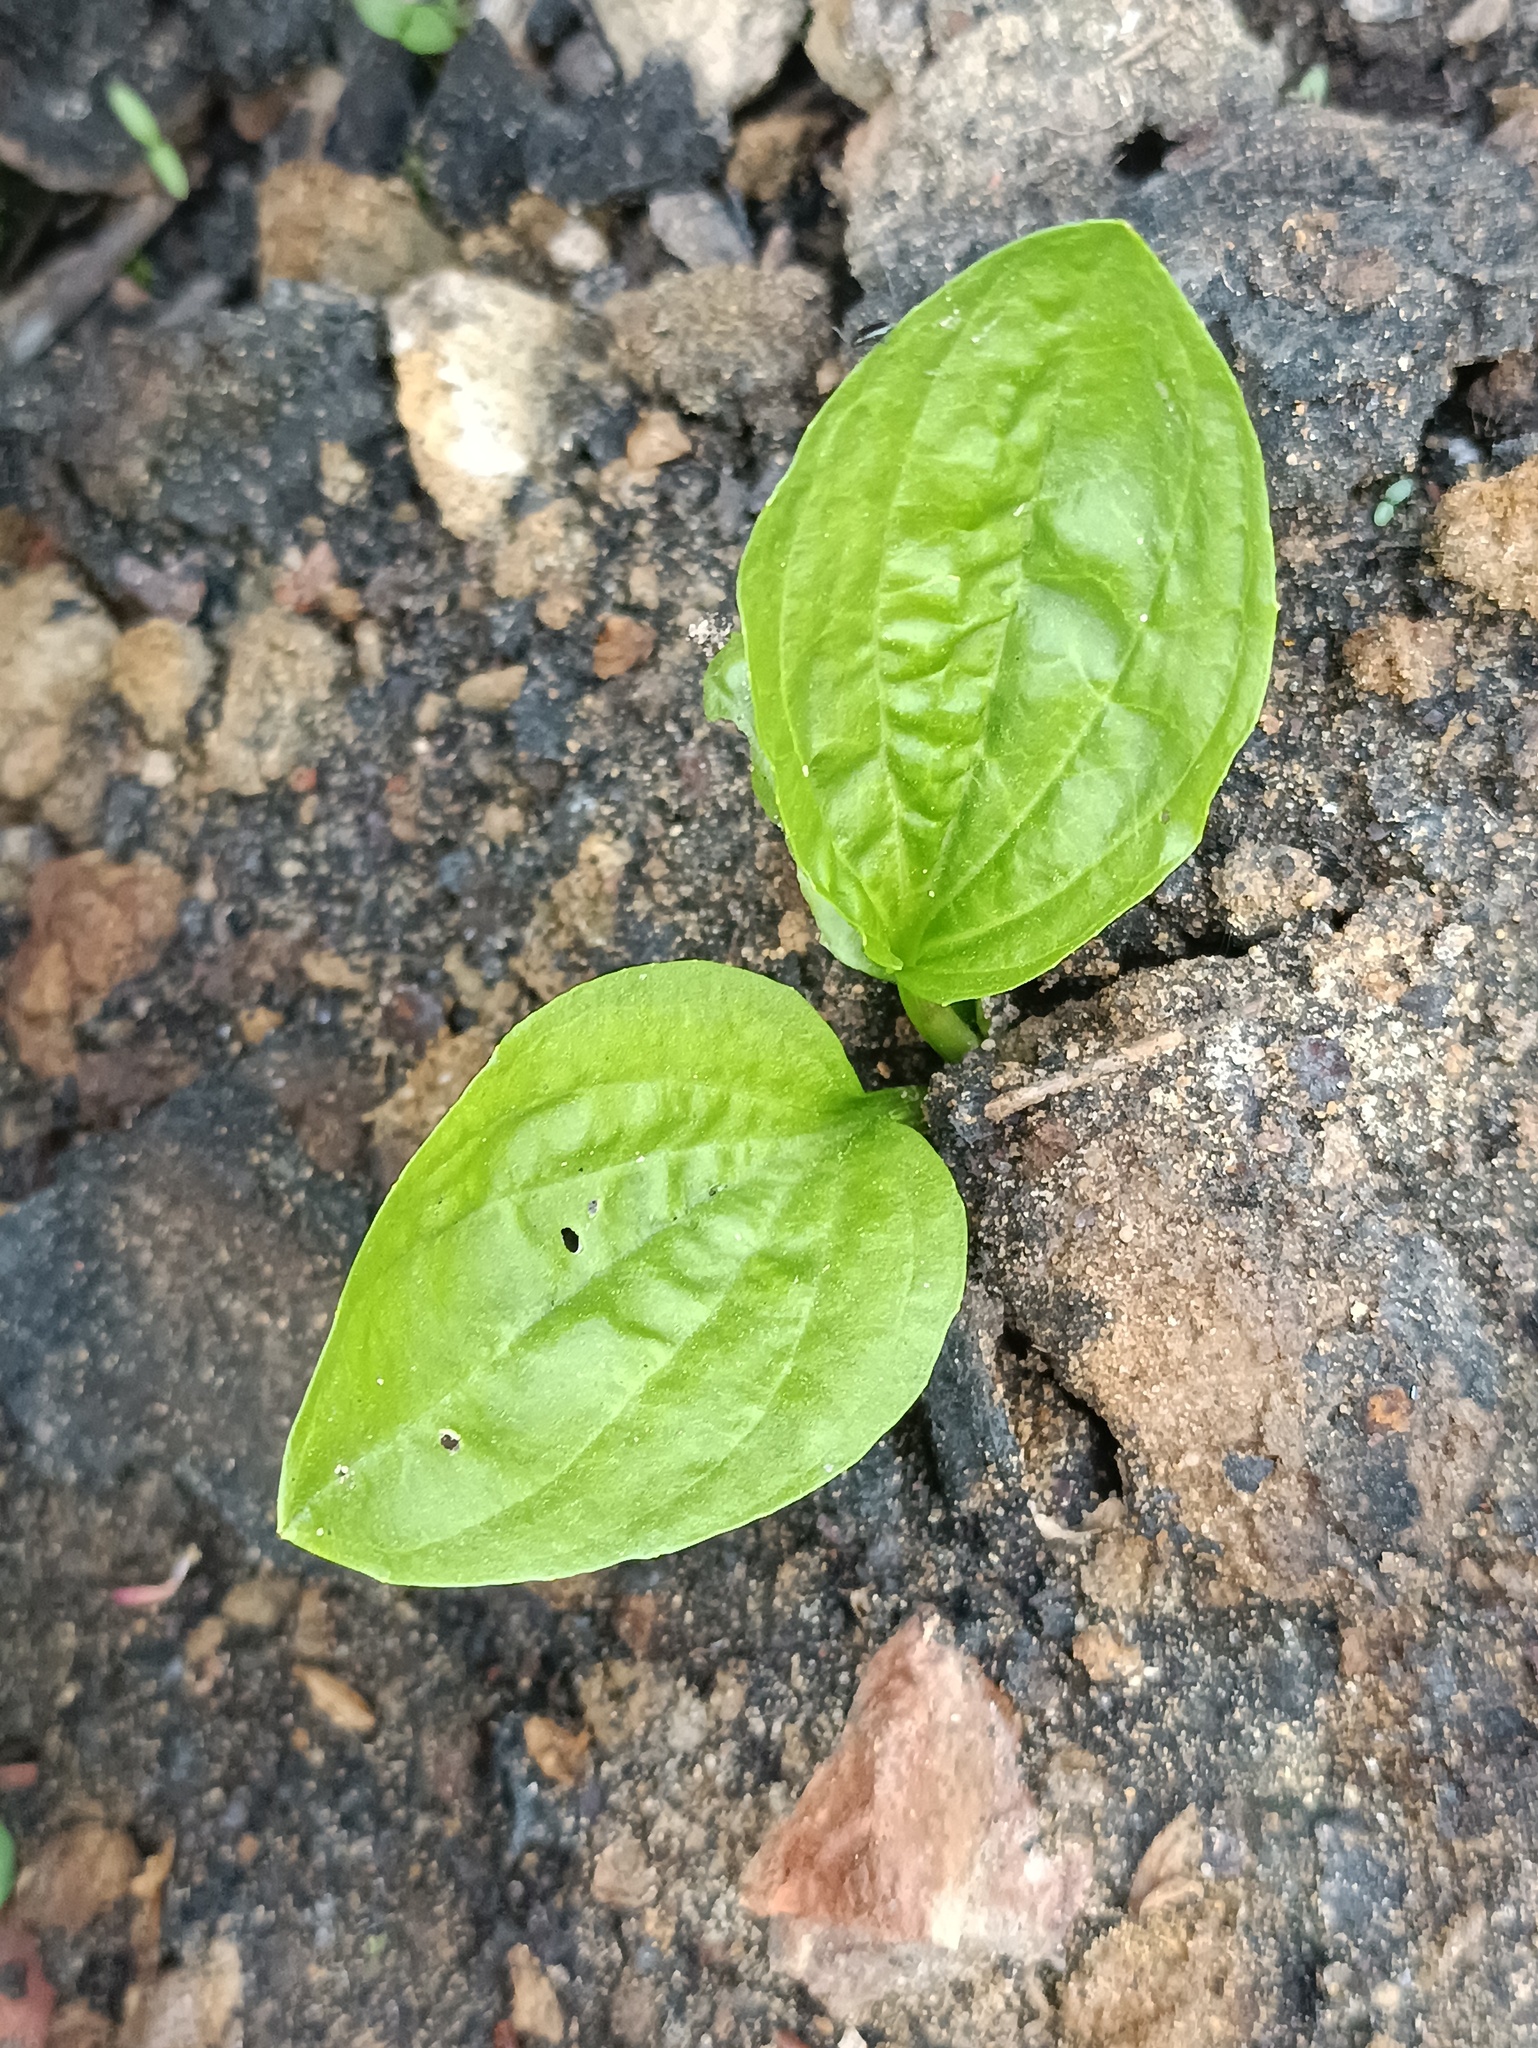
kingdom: Plantae
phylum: Tracheophyta
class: Magnoliopsida
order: Lamiales
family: Plantaginaceae
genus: Plantago
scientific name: Plantago major
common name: Common plantain
